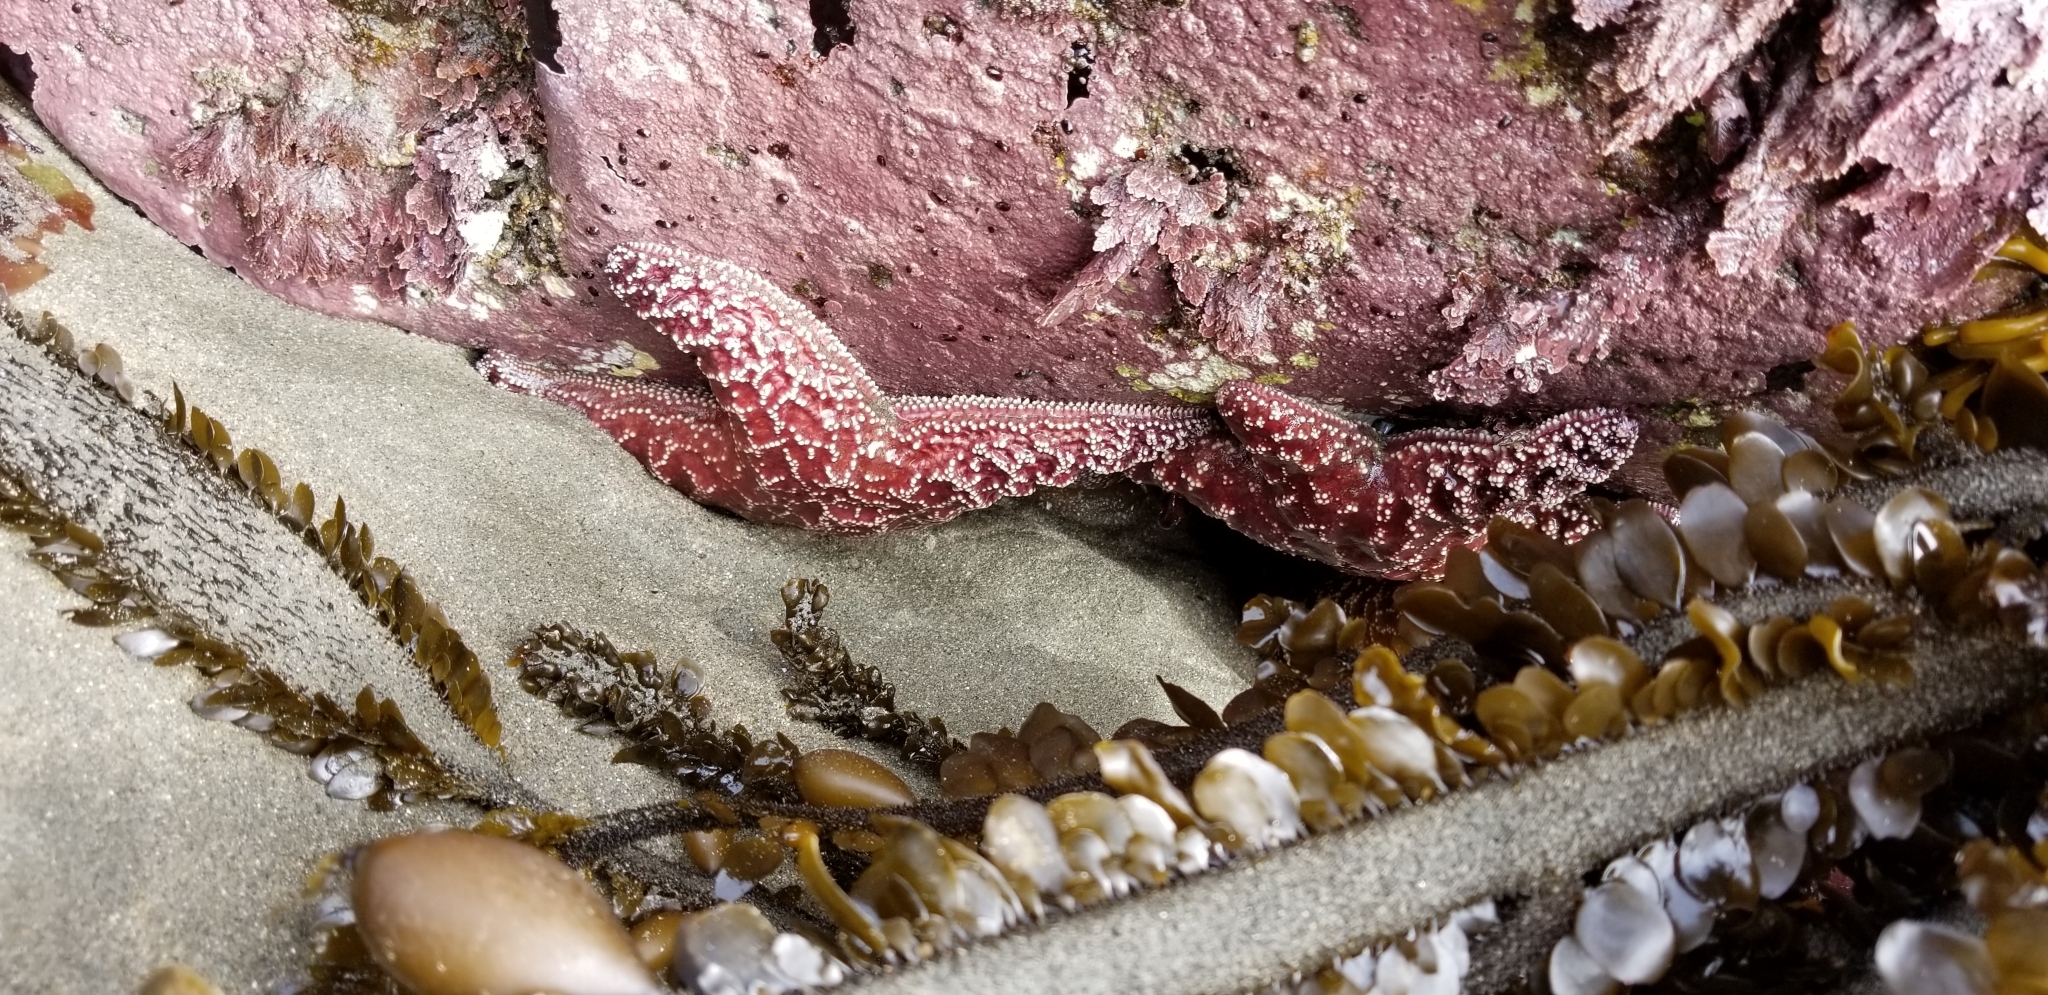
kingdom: Animalia
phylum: Echinodermata
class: Asteroidea
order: Forcipulatida
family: Asteriidae
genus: Pisaster
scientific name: Pisaster ochraceus
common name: Ochre stars
